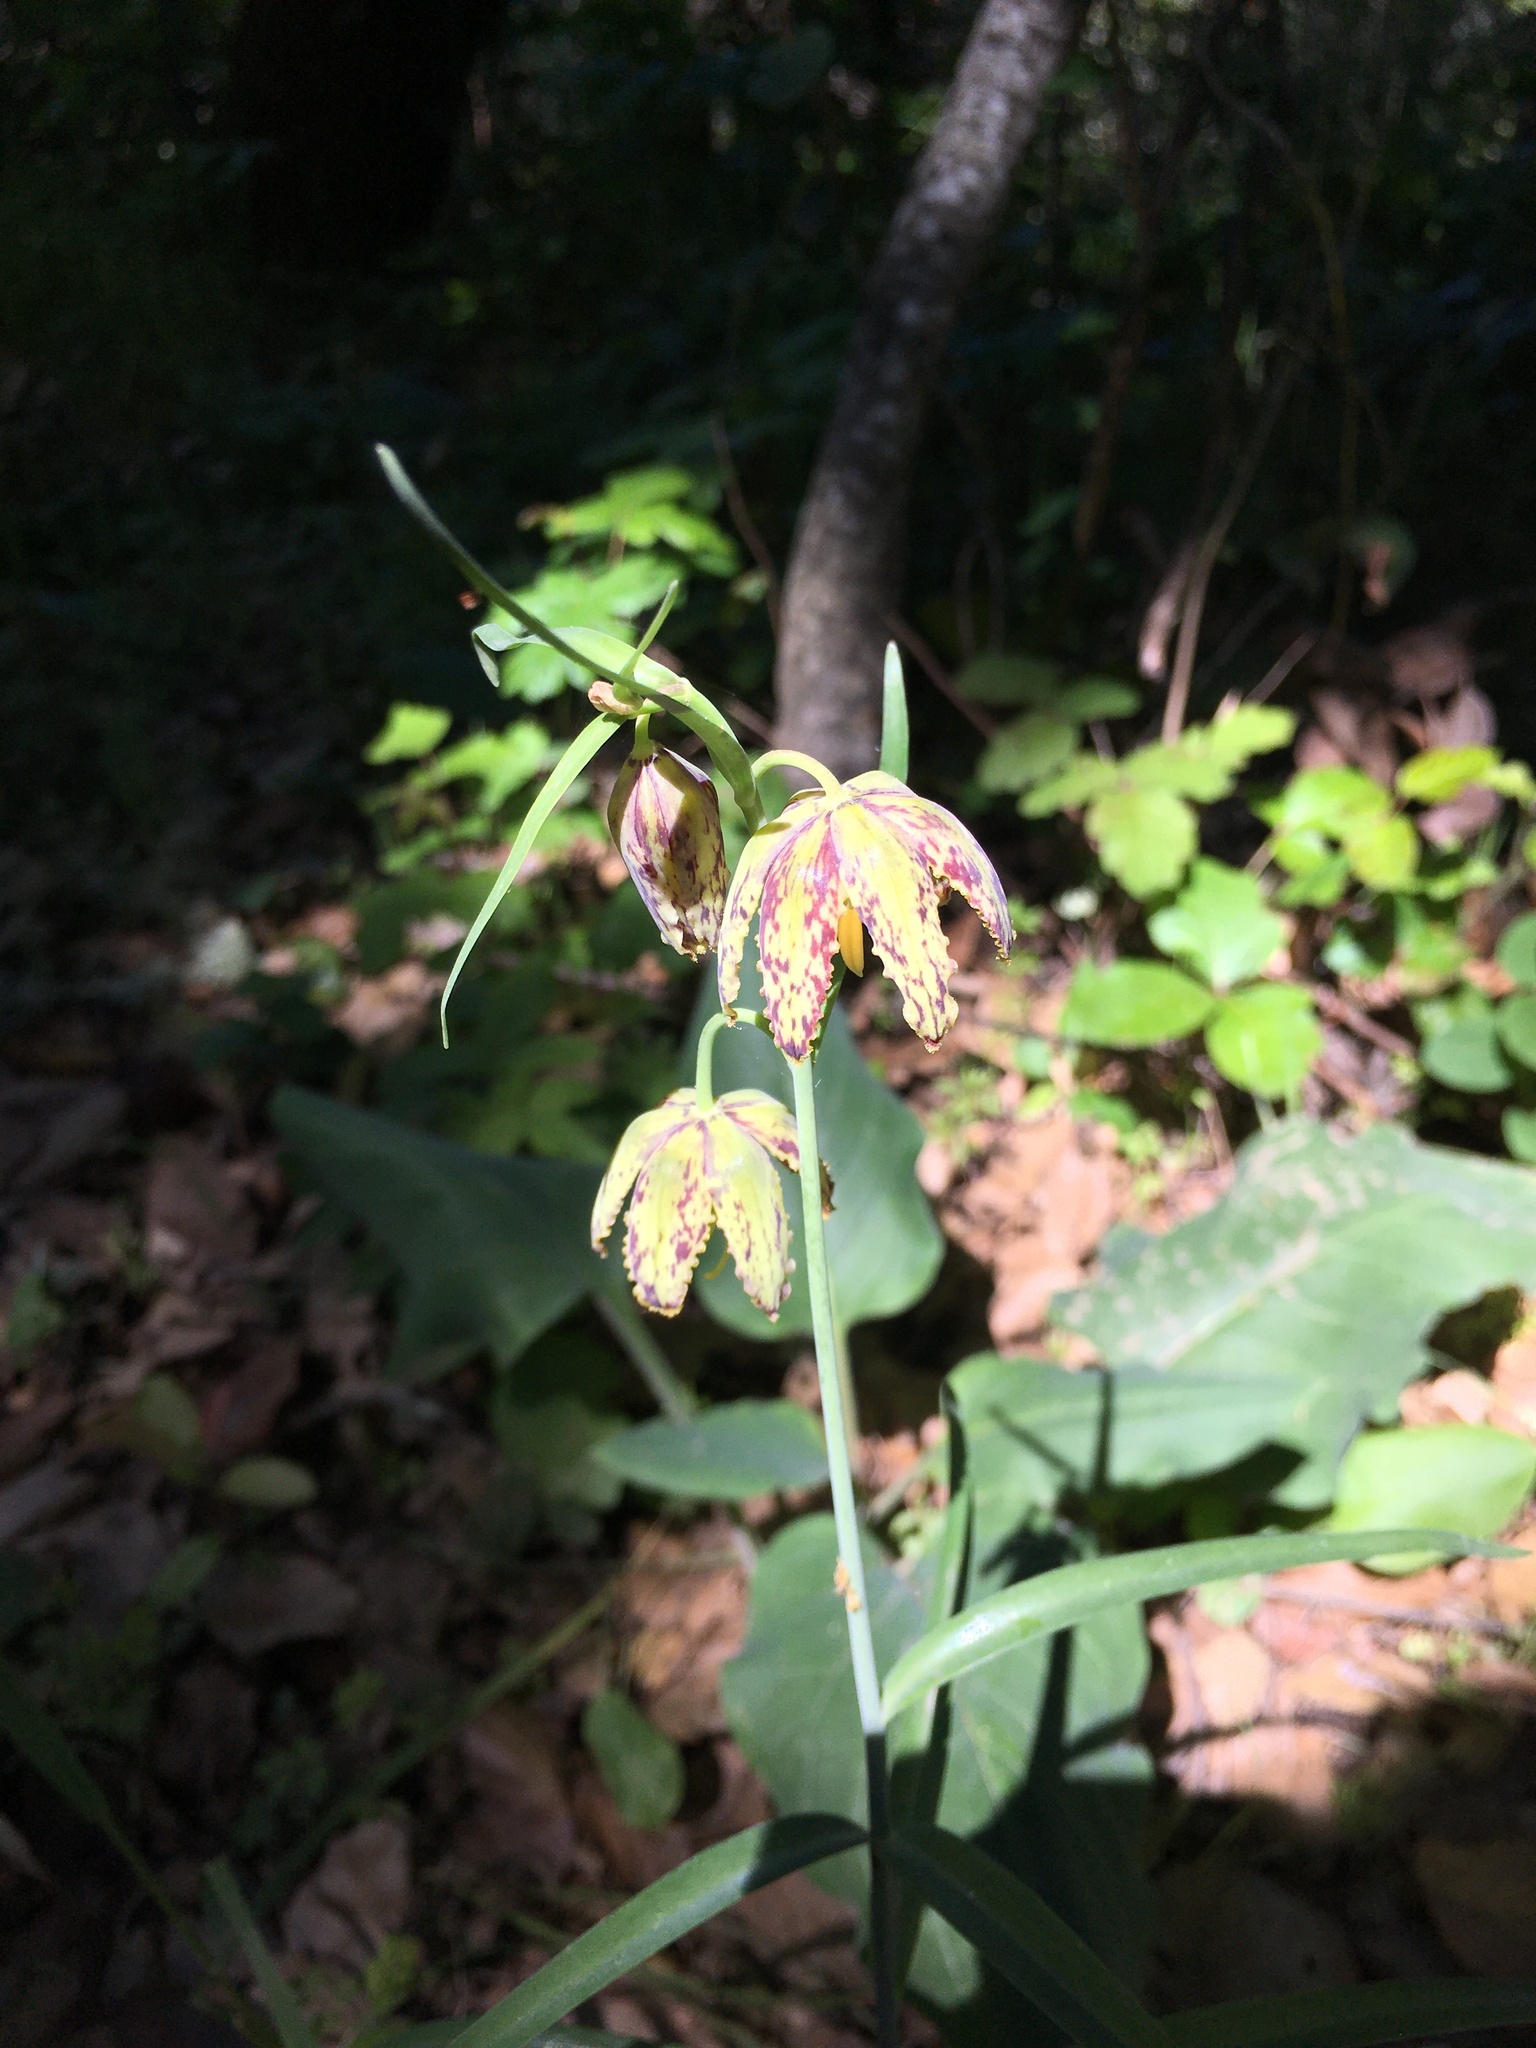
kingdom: Plantae
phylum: Tracheophyta
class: Liliopsida
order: Liliales
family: Liliaceae
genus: Fritillaria
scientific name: Fritillaria affinis
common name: Ojai fritillary
